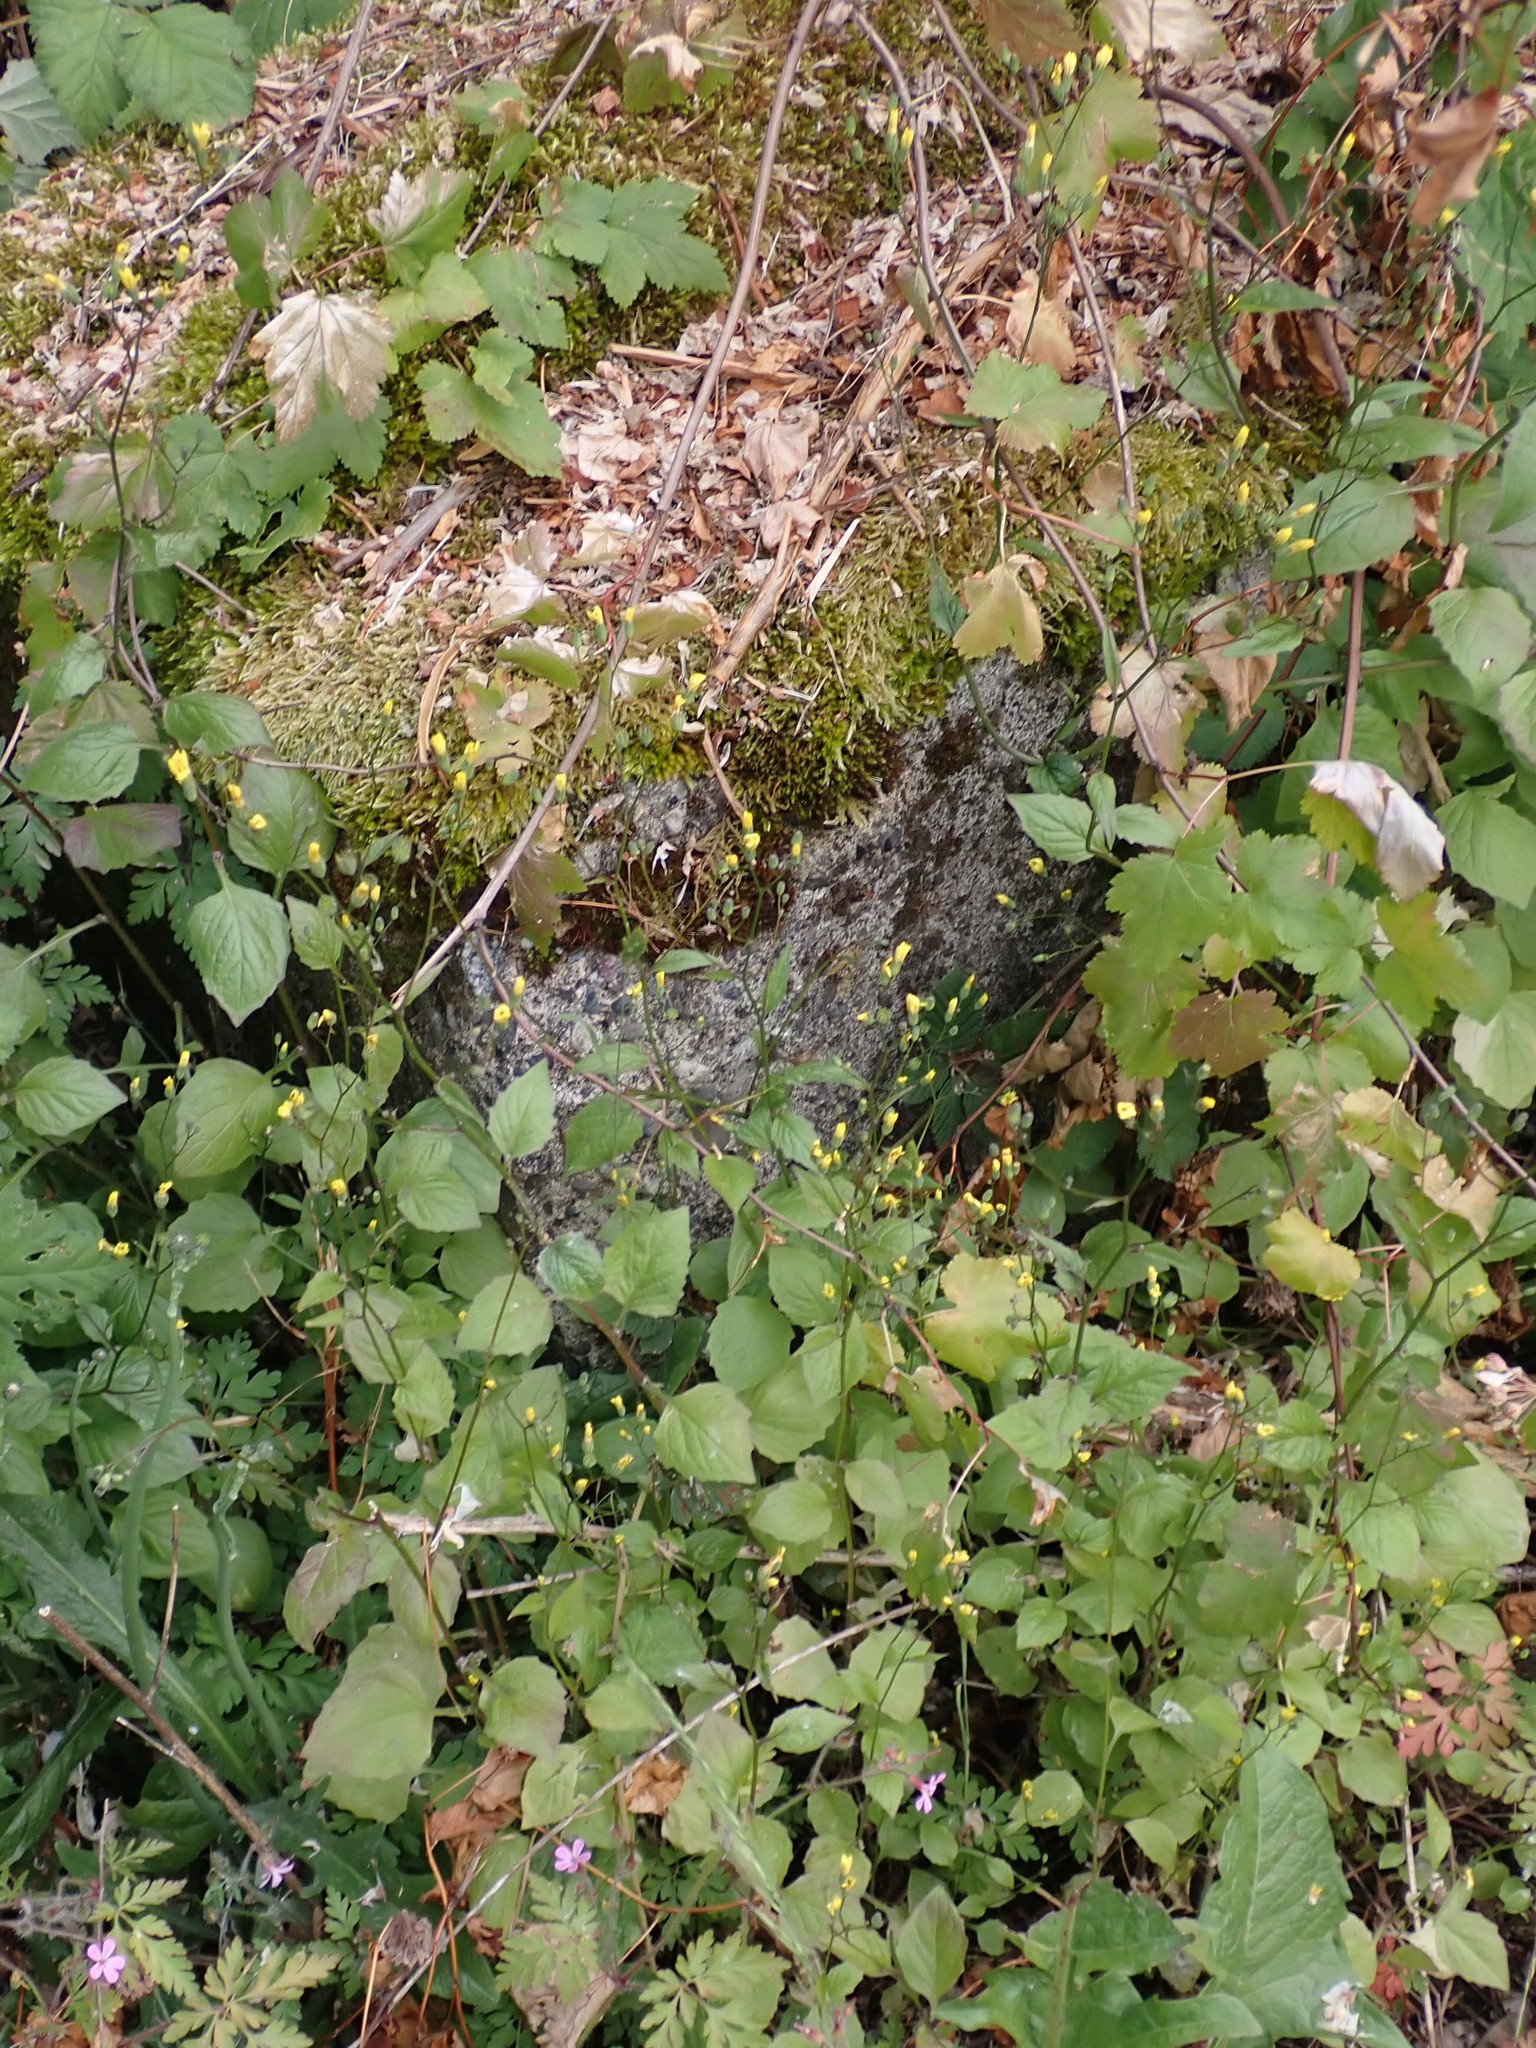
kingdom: Plantae
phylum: Tracheophyta
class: Magnoliopsida
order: Asterales
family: Asteraceae
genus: Lapsana
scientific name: Lapsana communis
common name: Nipplewort
